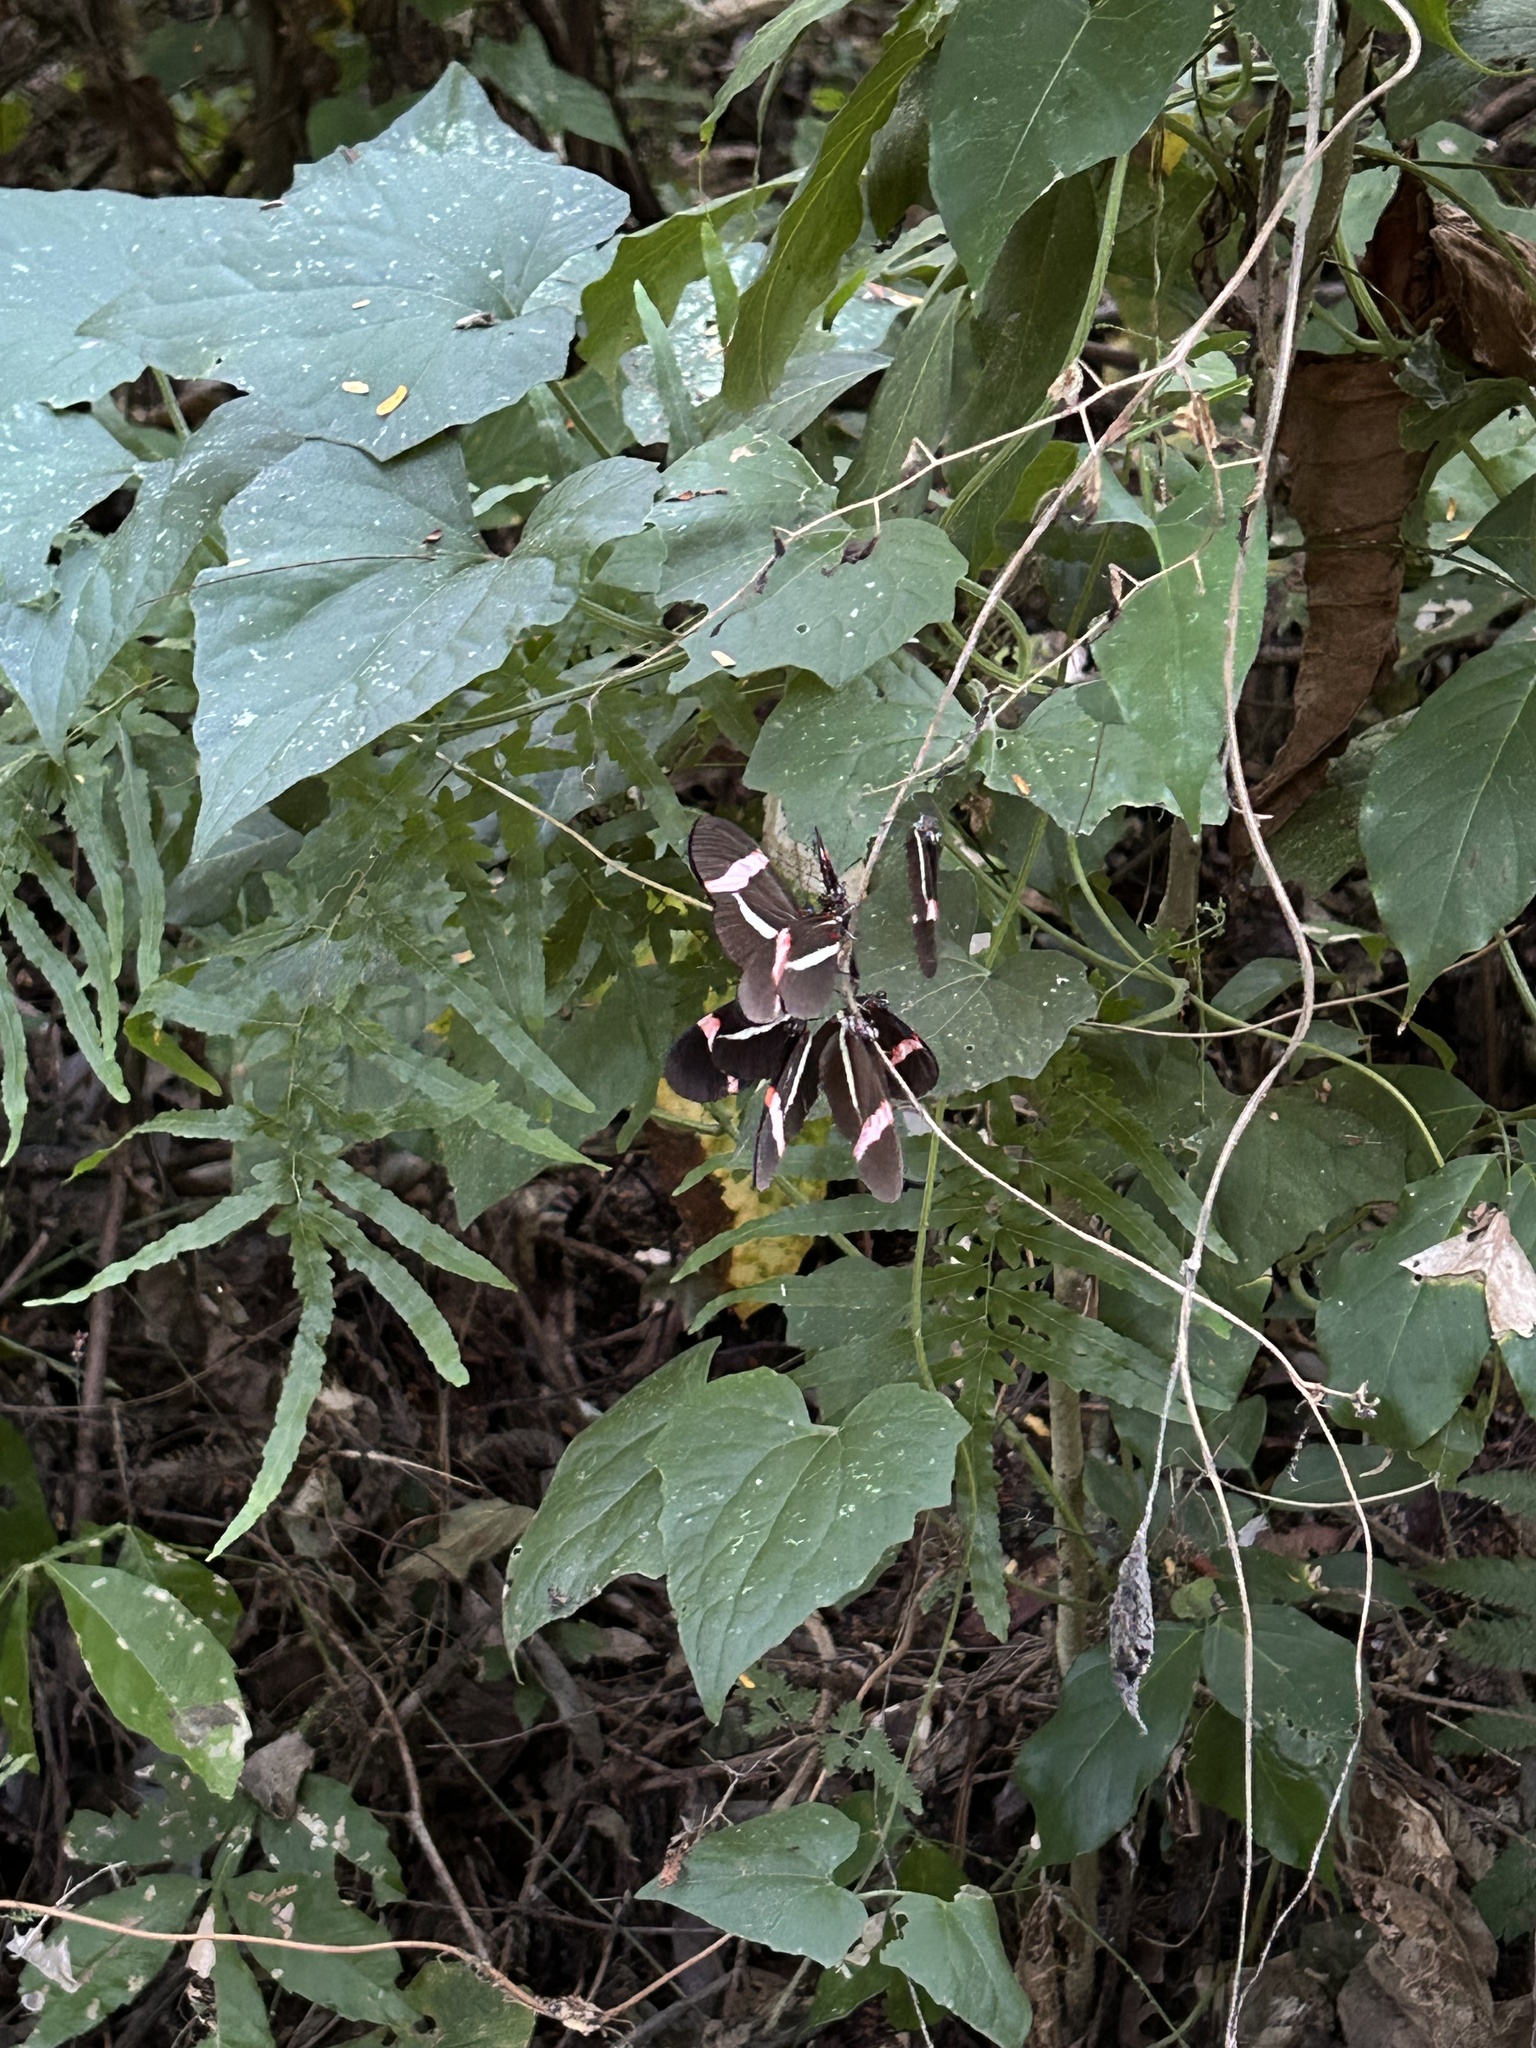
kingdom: Animalia
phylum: Arthropoda
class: Insecta
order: Lepidoptera
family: Nymphalidae
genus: Heliconius
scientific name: Heliconius erato
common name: Common patch longwing
